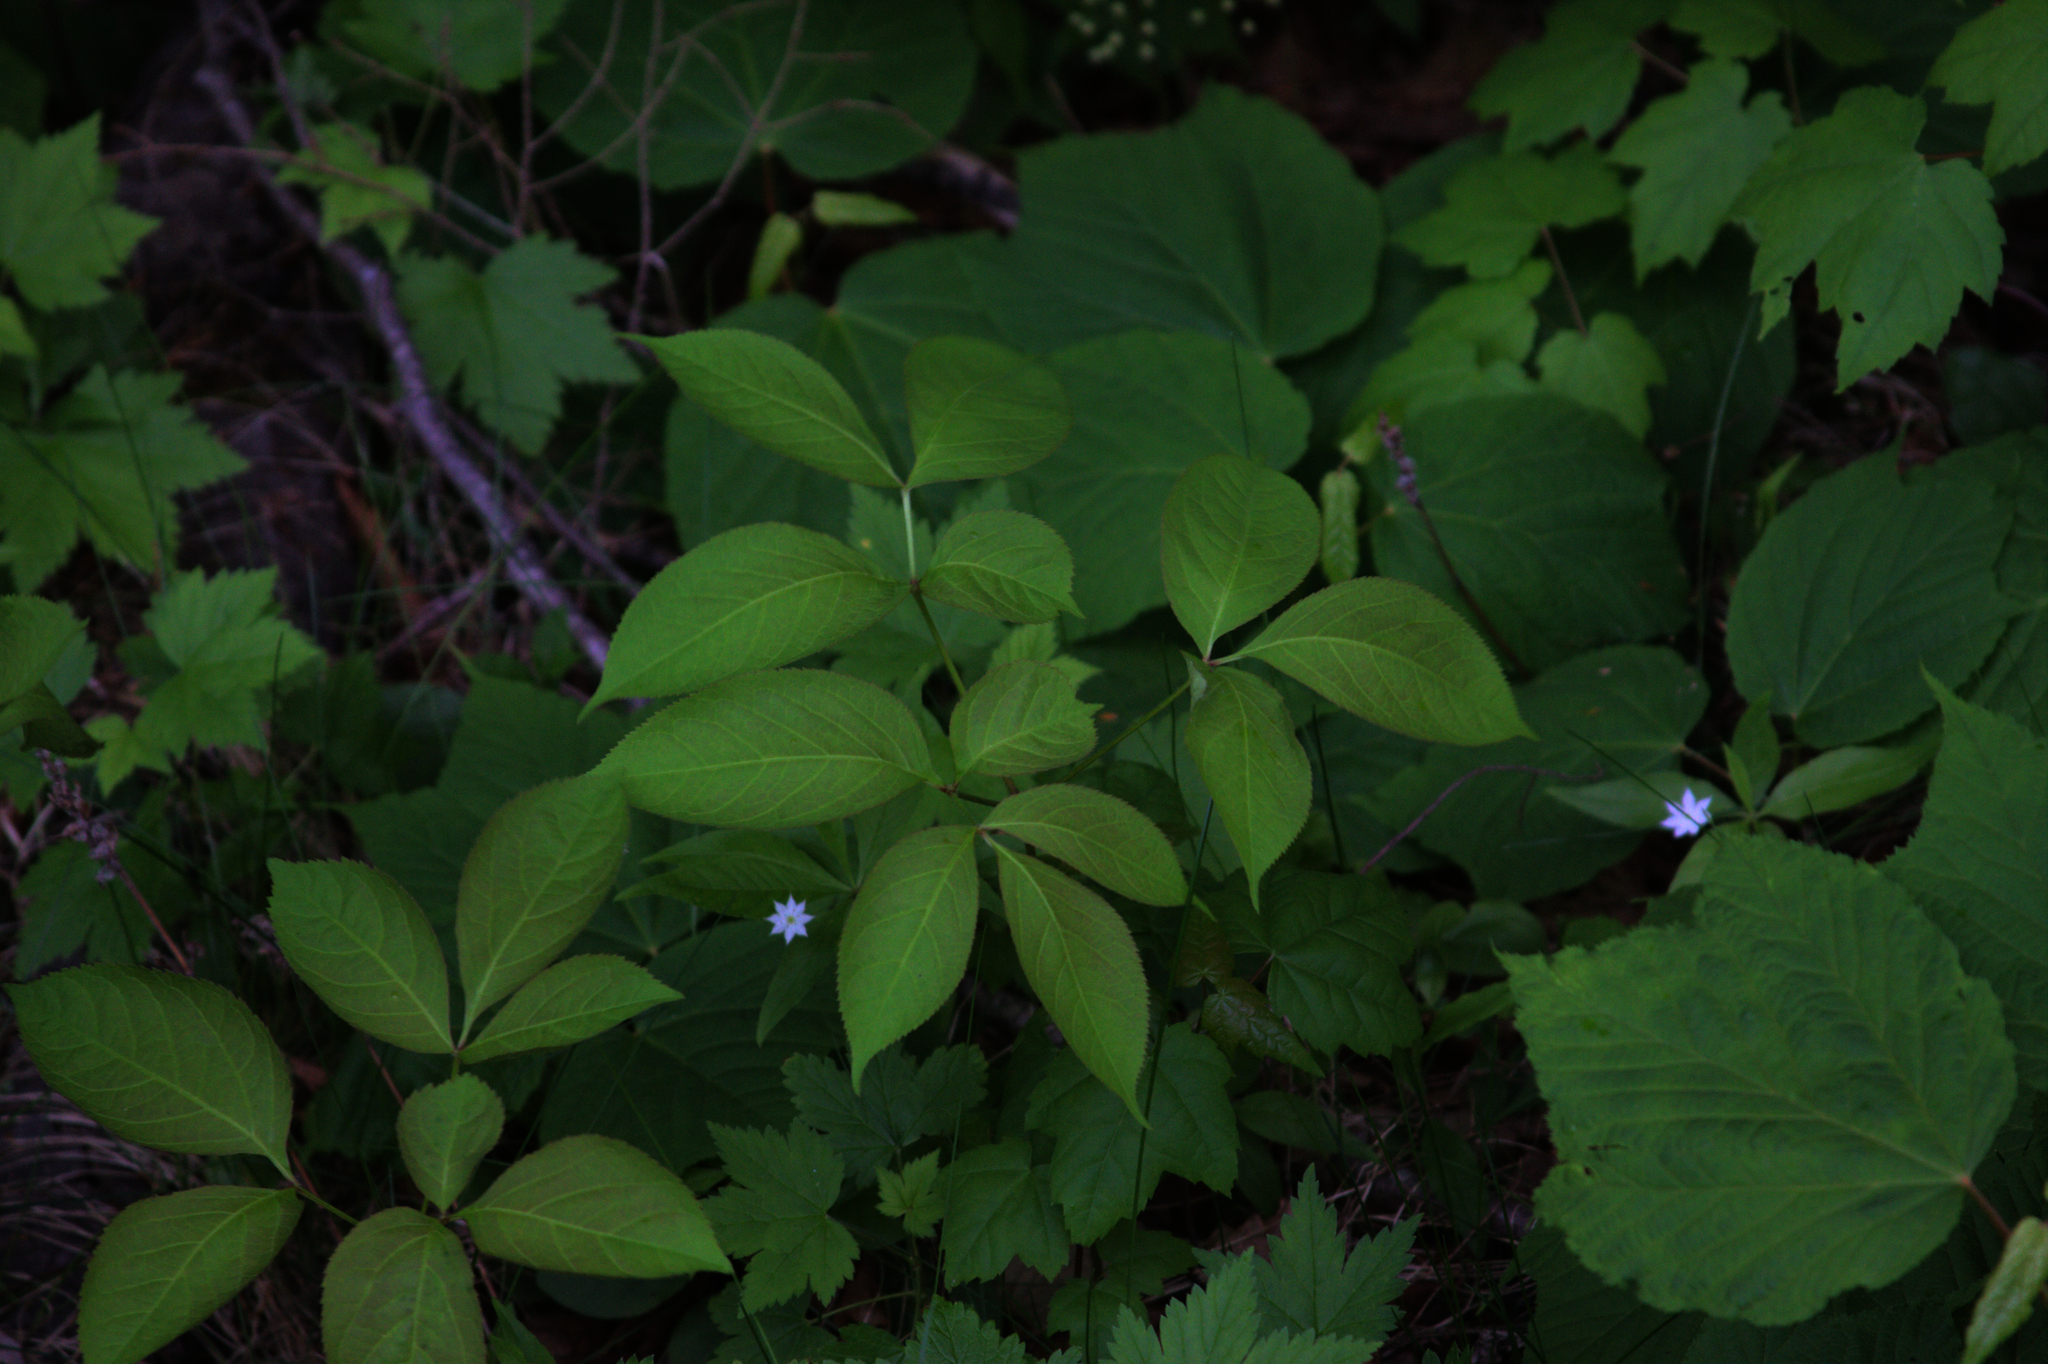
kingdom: Plantae
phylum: Tracheophyta
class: Magnoliopsida
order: Apiales
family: Araliaceae
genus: Aralia
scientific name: Aralia nudicaulis
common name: Wild sarsaparilla
